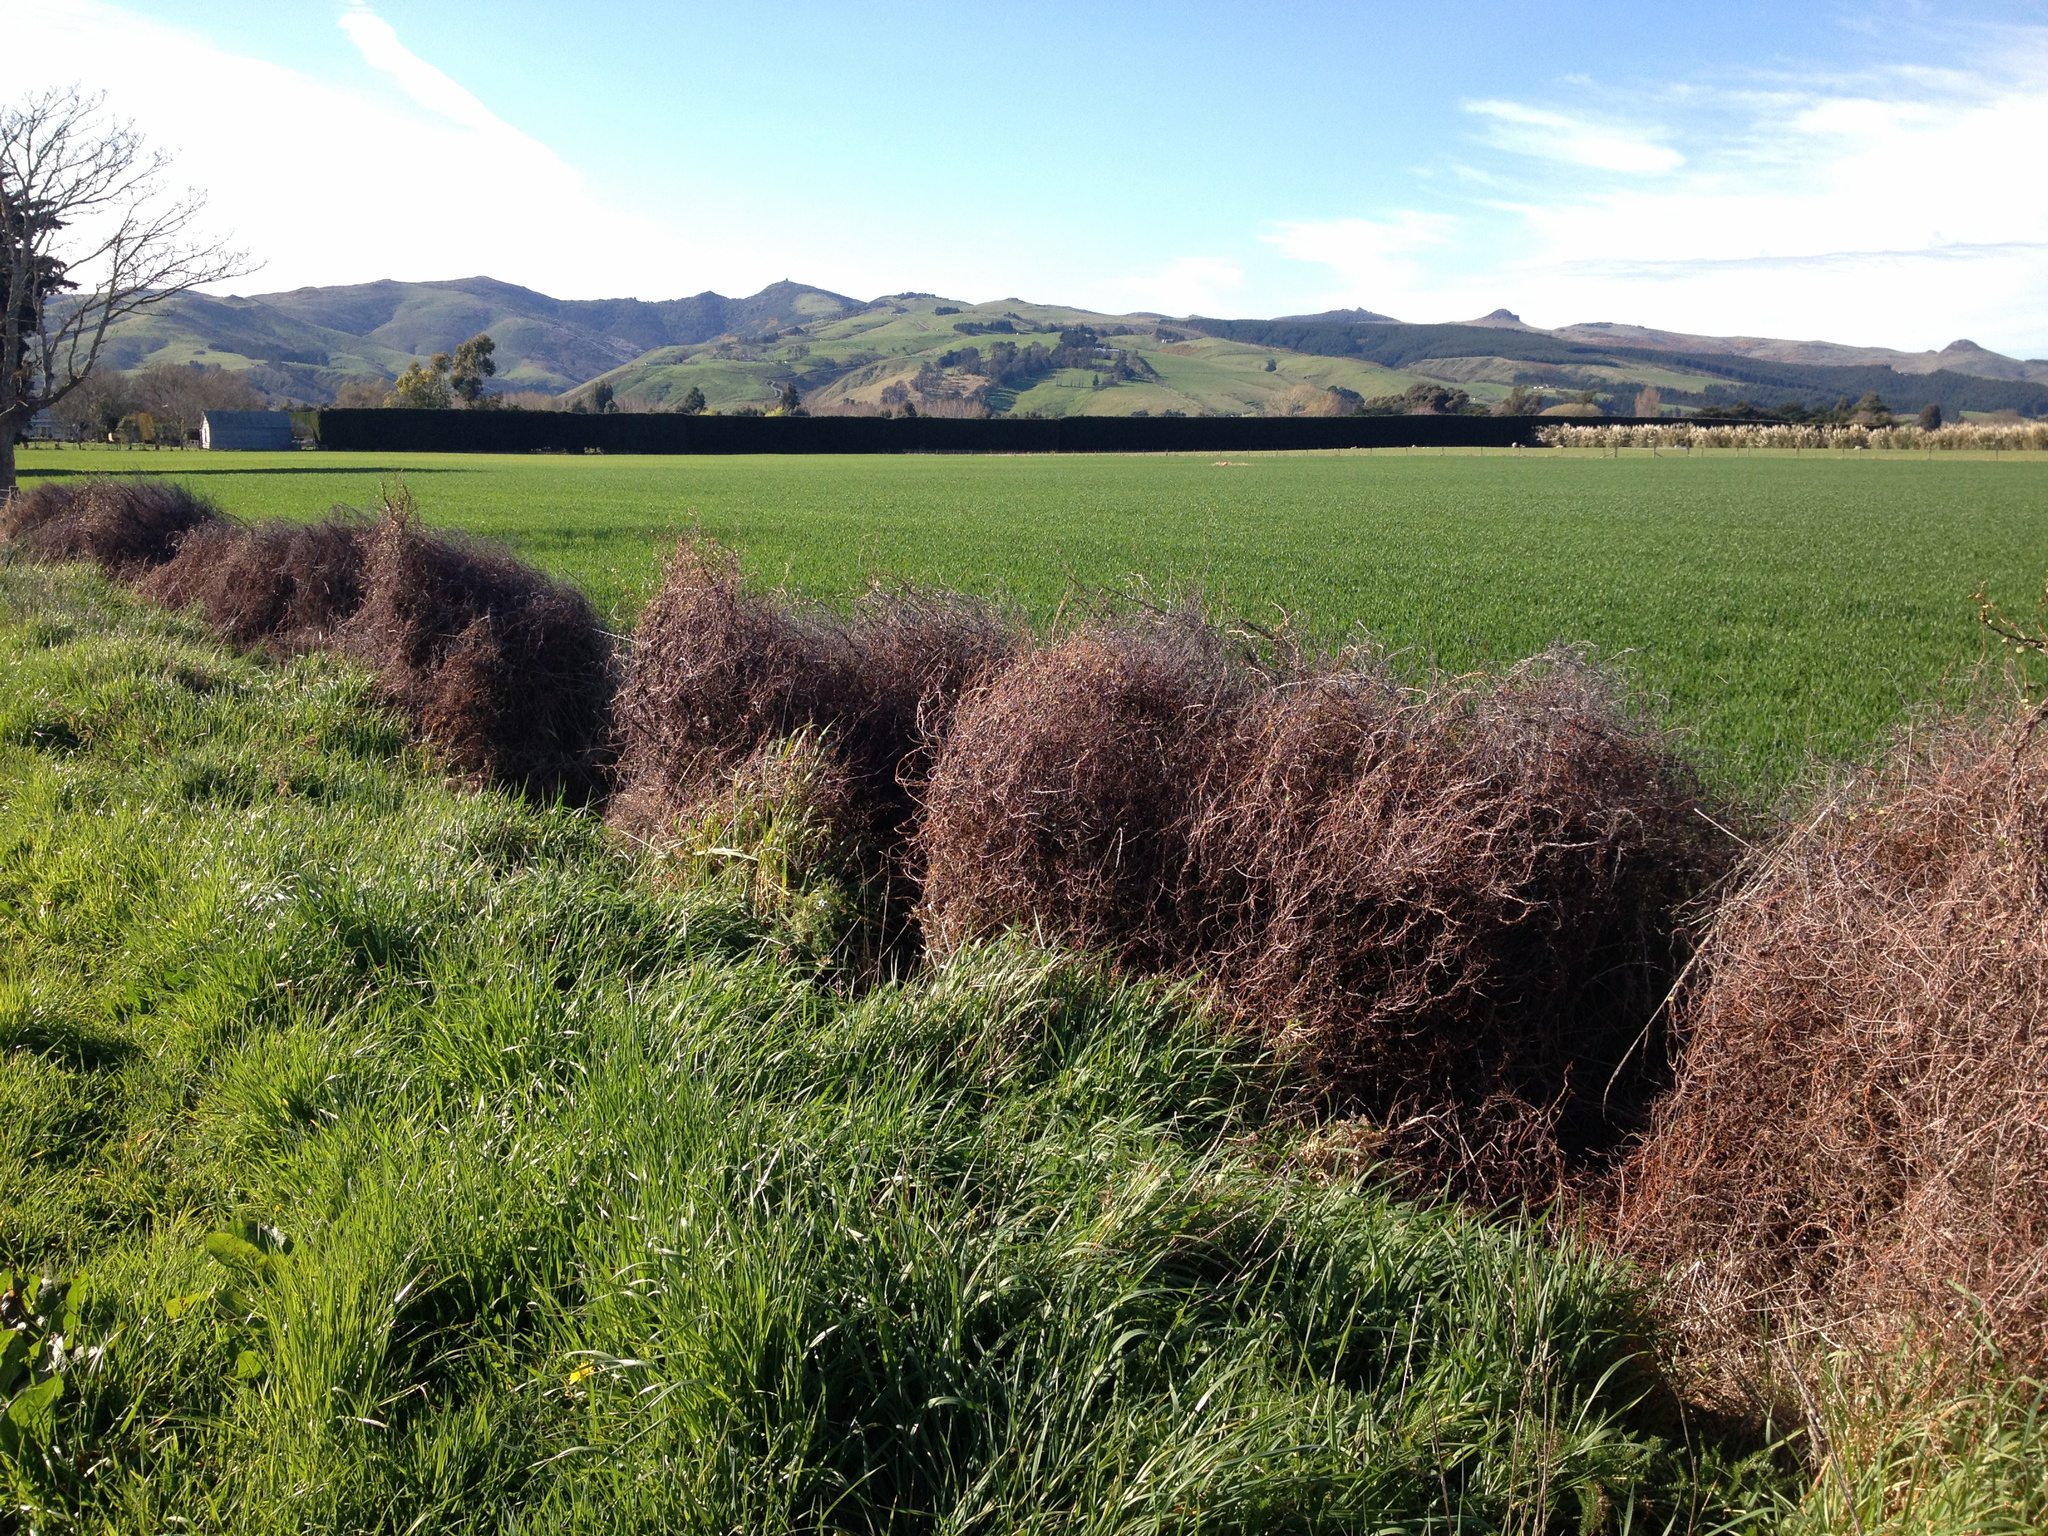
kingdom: Plantae
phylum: Tracheophyta
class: Magnoliopsida
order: Caryophyllales
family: Polygonaceae
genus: Muehlenbeckia
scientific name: Muehlenbeckia complexa
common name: Wireplant
